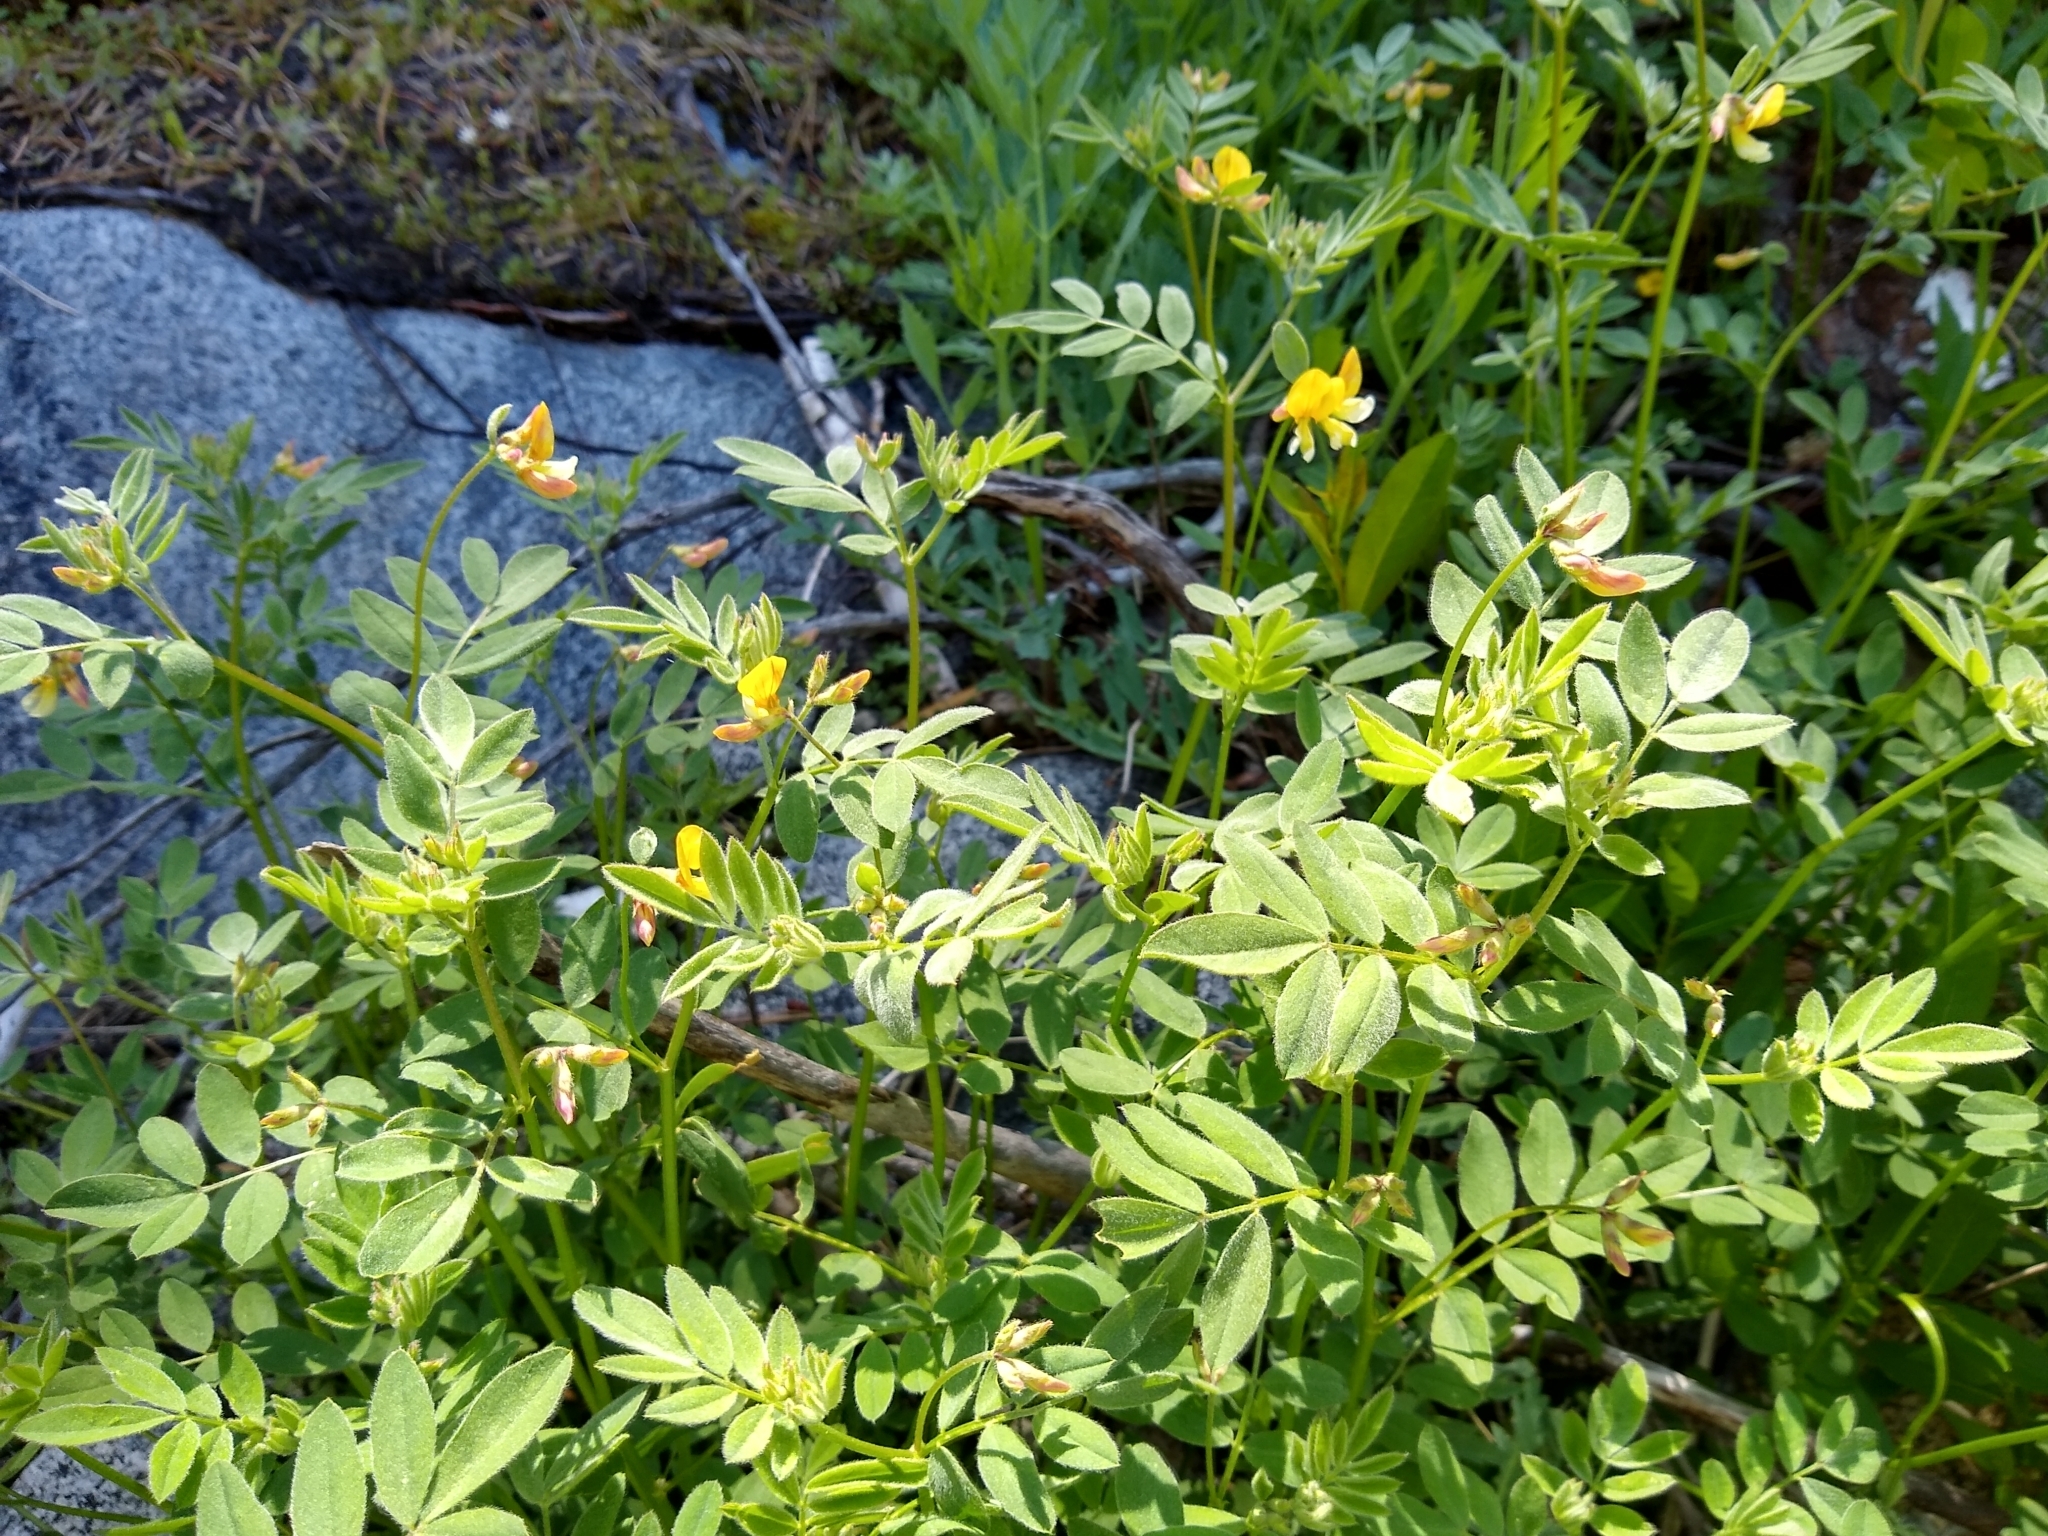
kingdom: Plantae
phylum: Tracheophyta
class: Magnoliopsida
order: Fabales
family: Fabaceae
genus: Hosackia
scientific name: Hosackia oblongifolia
